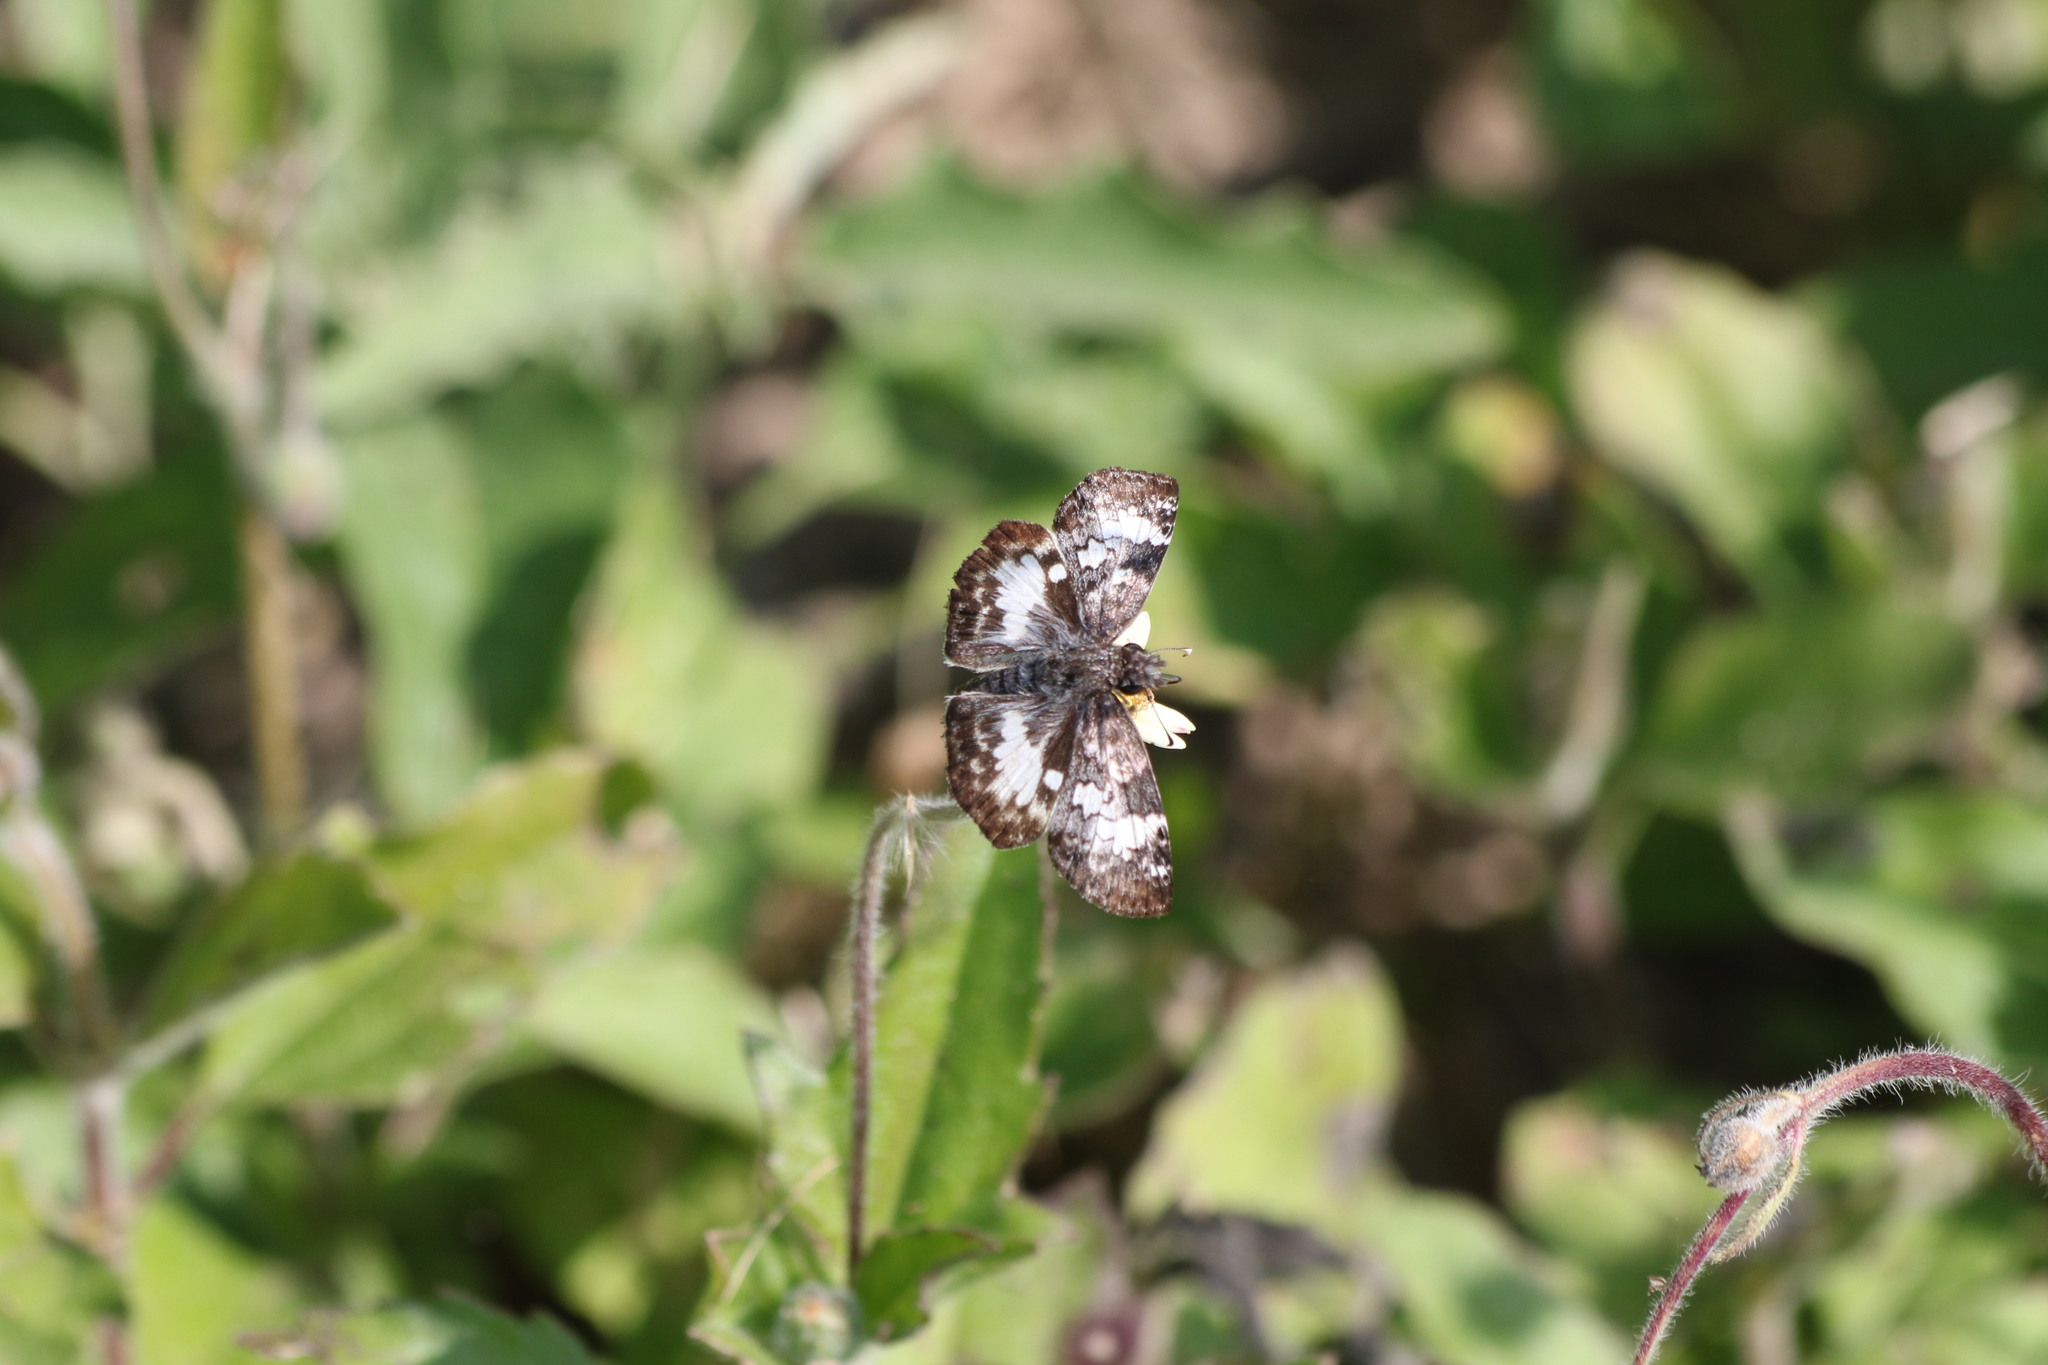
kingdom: Animalia
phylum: Arthropoda
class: Insecta
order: Lepidoptera
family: Hesperiidae
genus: Chiothion
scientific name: Chiothion georgina
